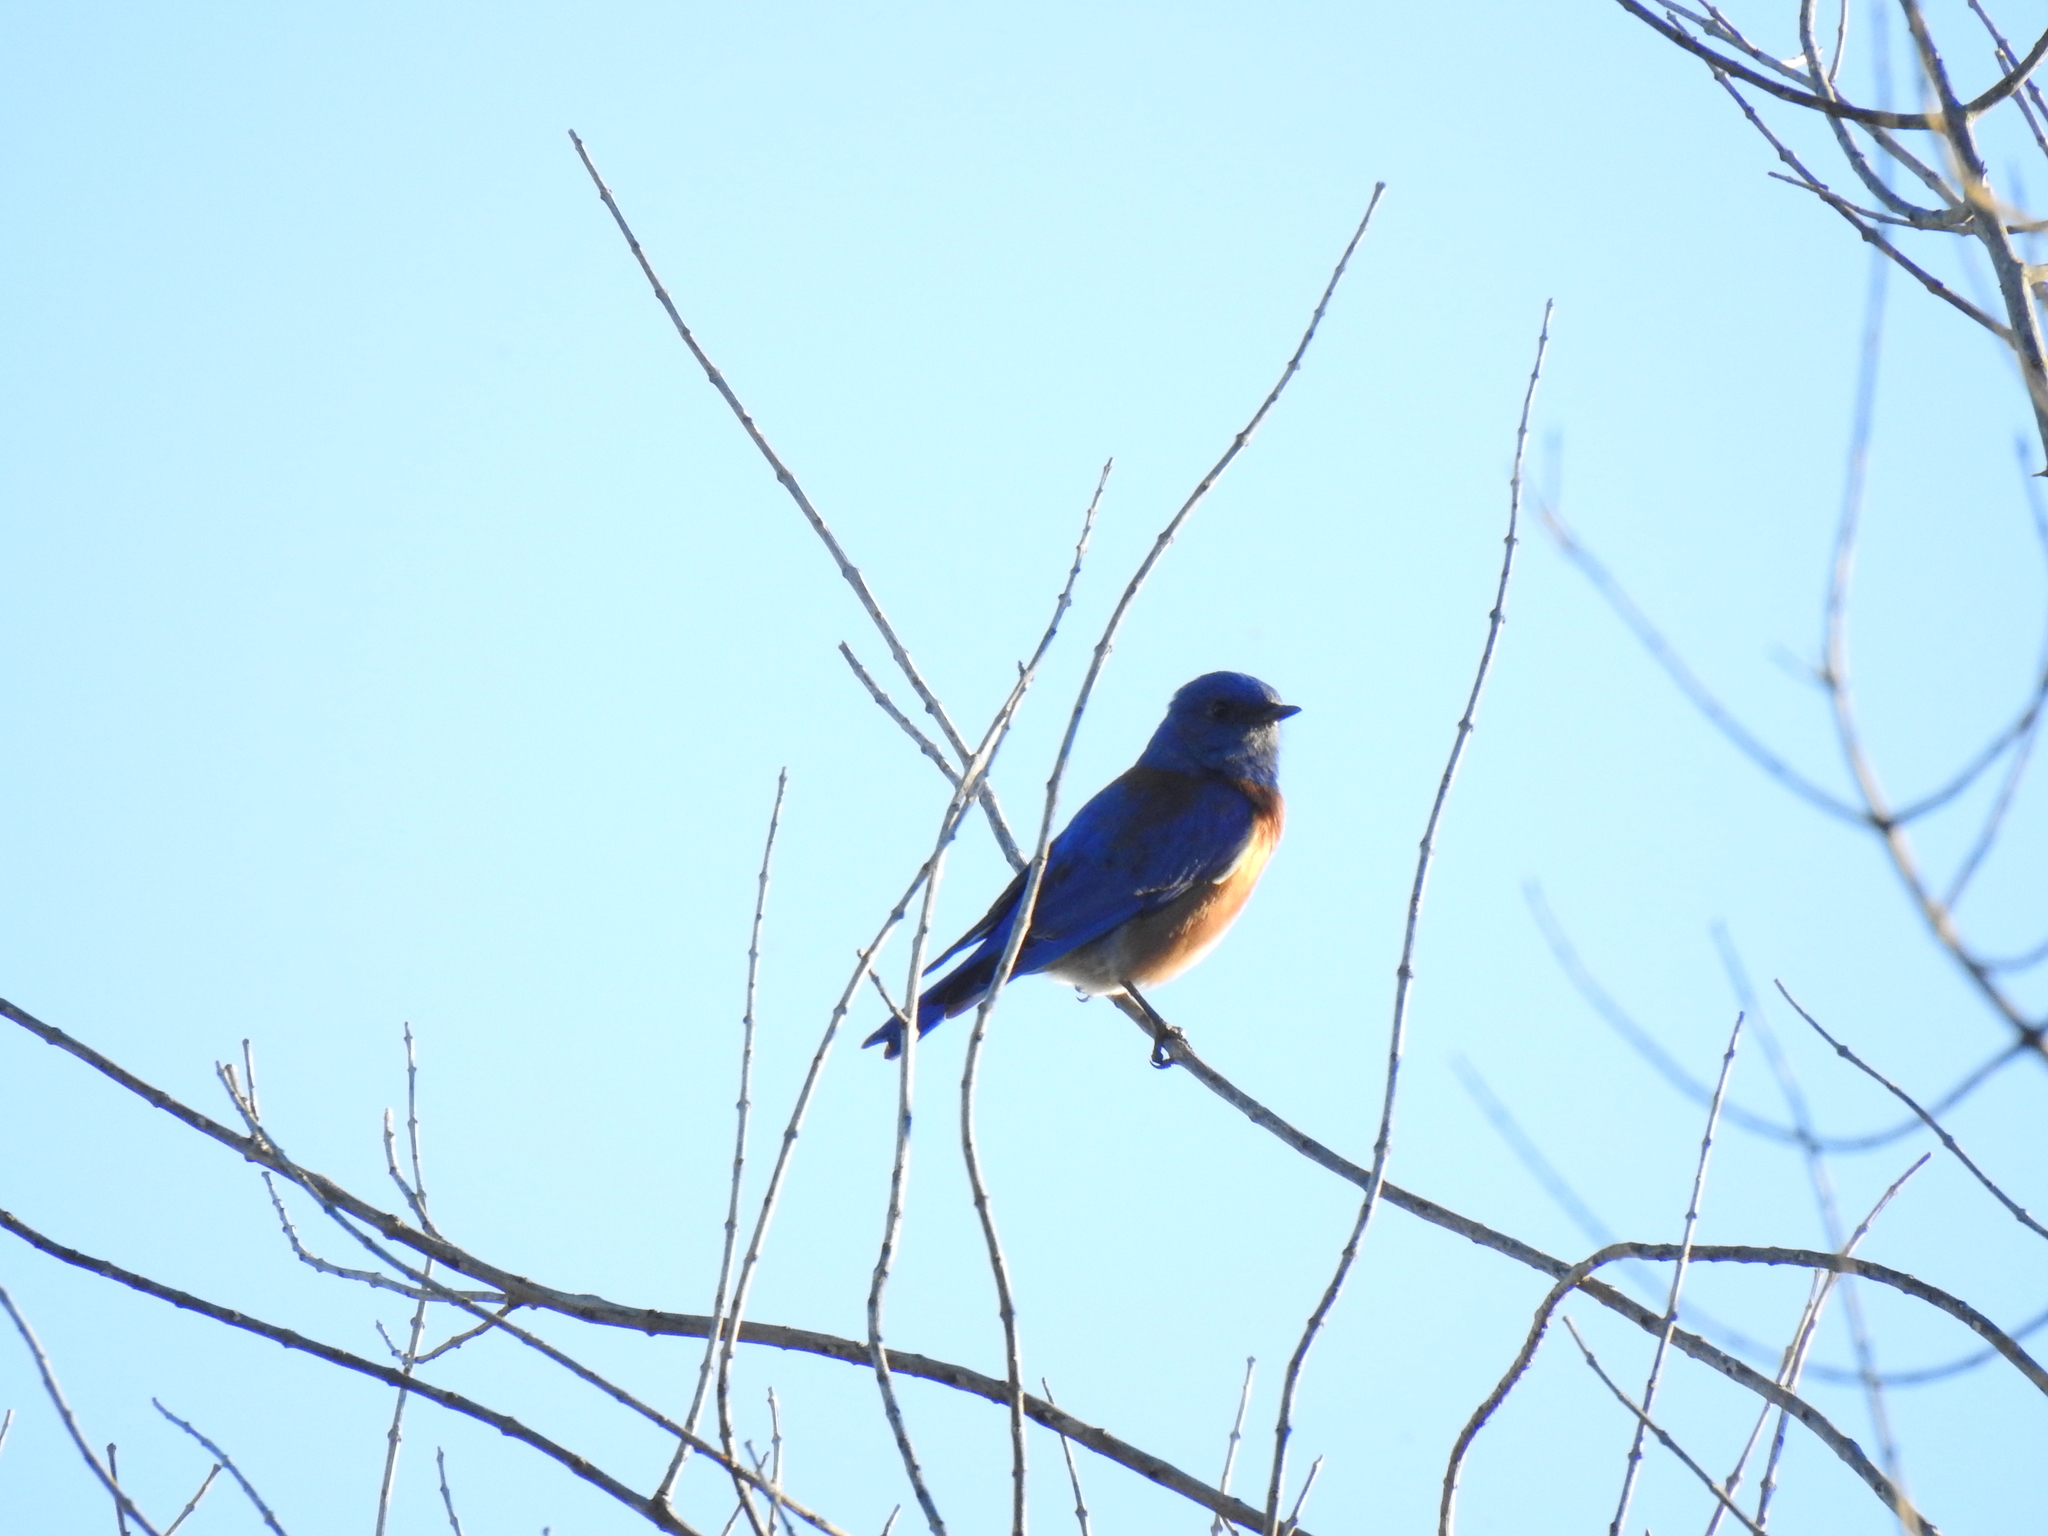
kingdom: Animalia
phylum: Chordata
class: Aves
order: Passeriformes
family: Turdidae
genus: Sialia
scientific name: Sialia mexicana
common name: Western bluebird
